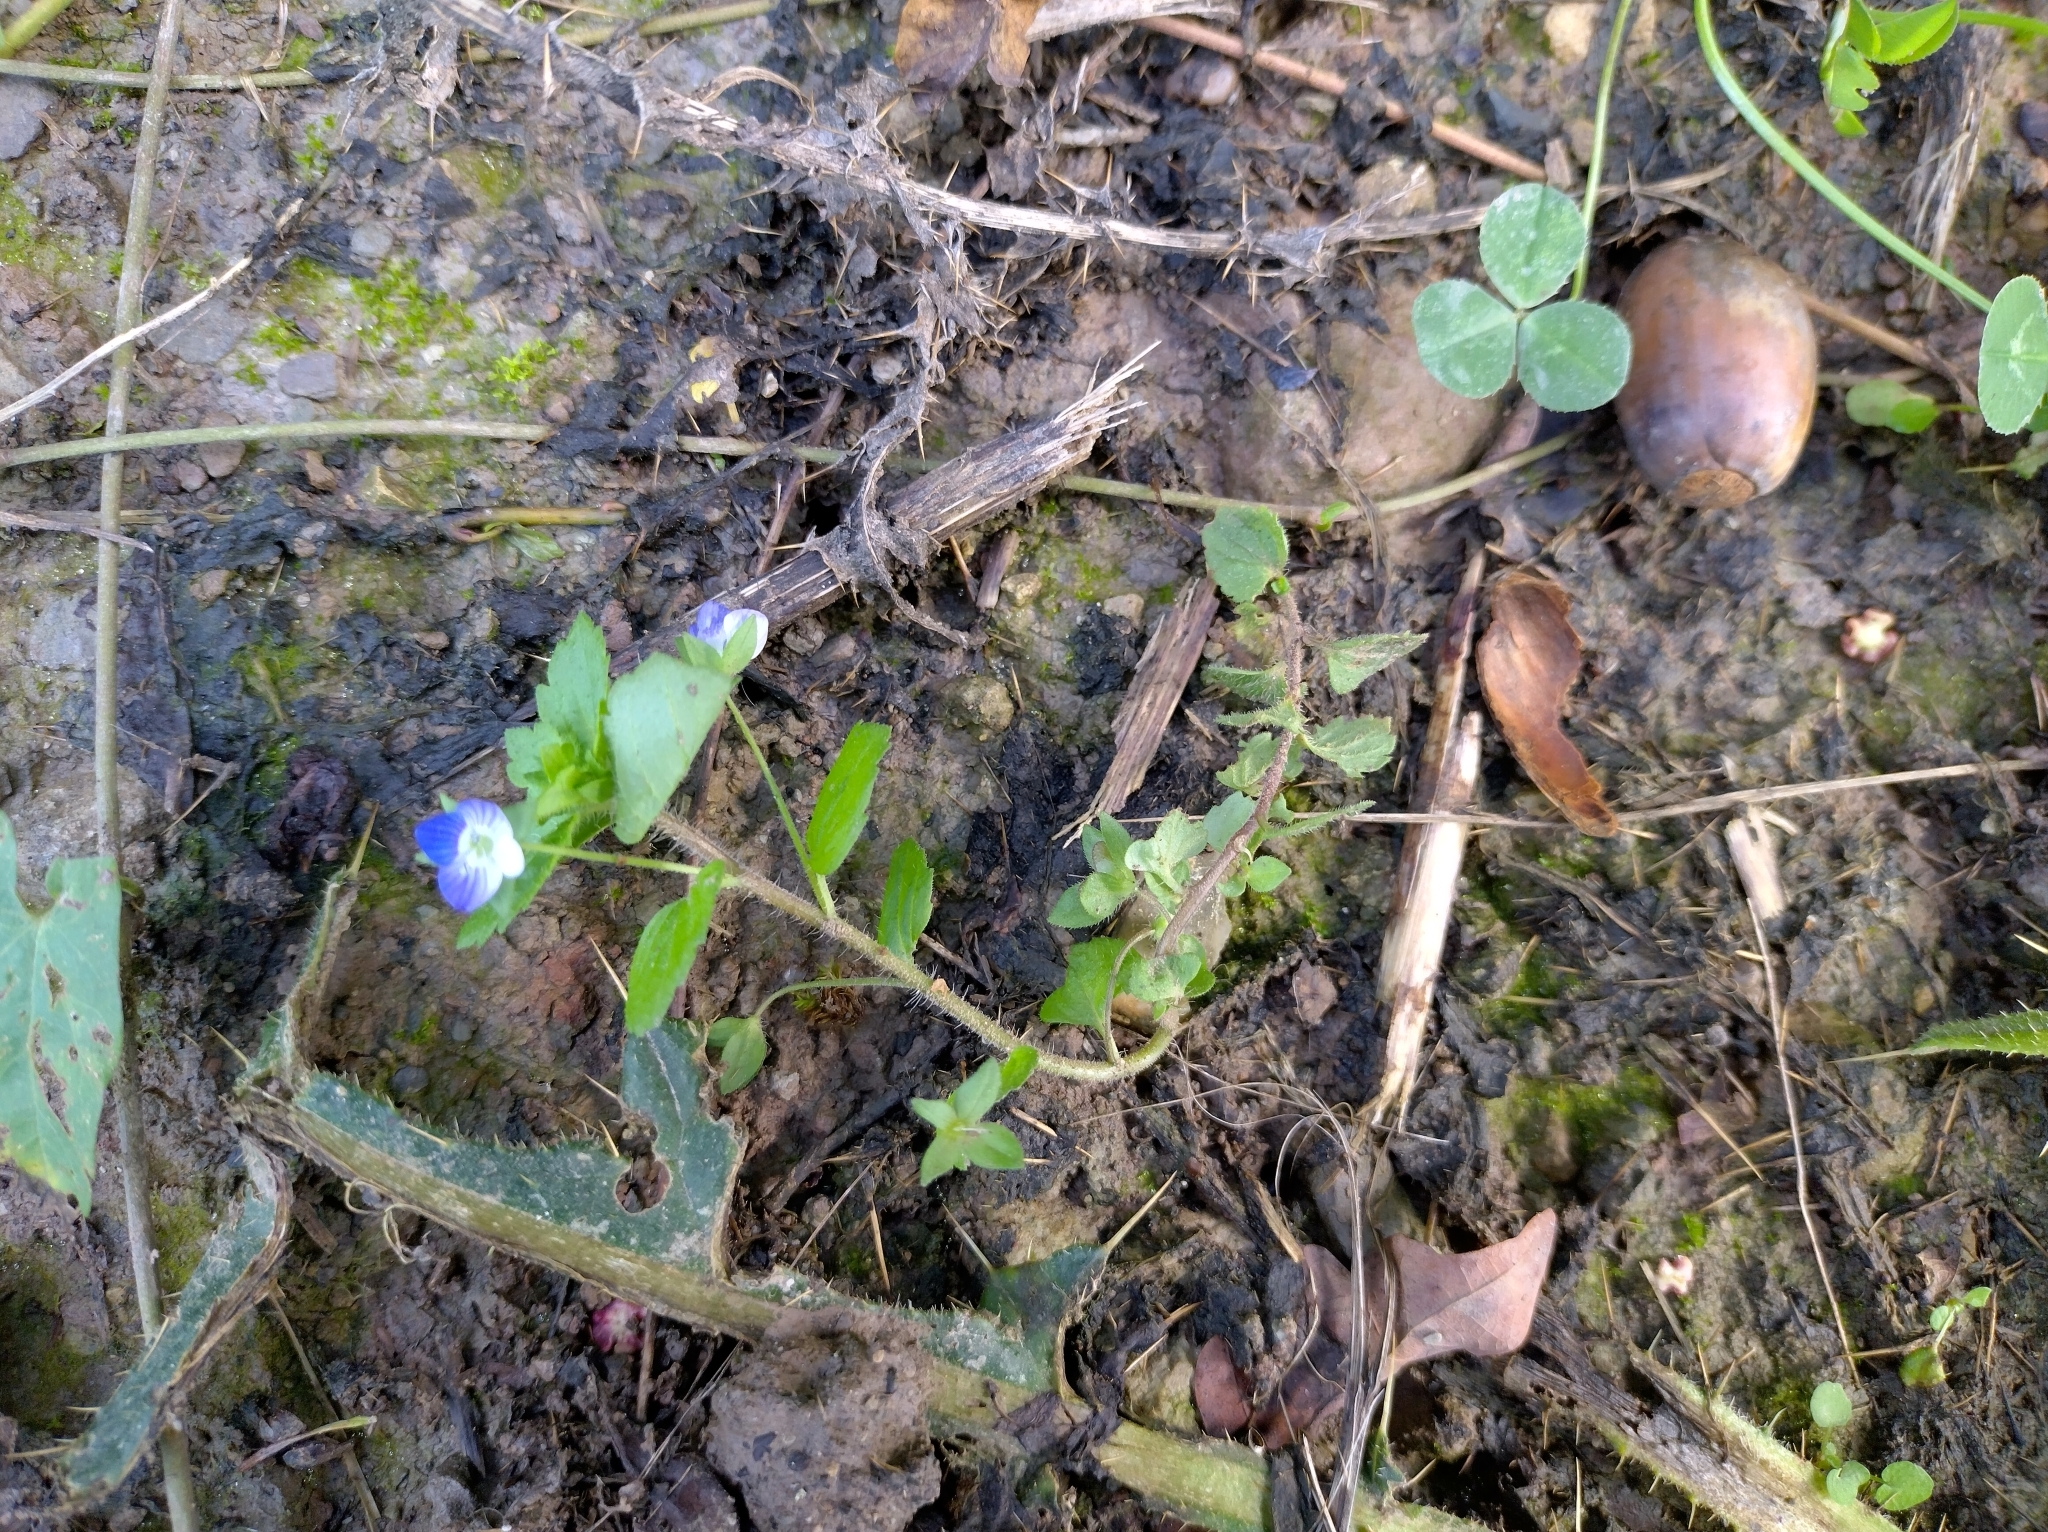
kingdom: Plantae
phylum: Tracheophyta
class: Magnoliopsida
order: Lamiales
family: Plantaginaceae
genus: Veronica
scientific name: Veronica persica
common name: Common field-speedwell
